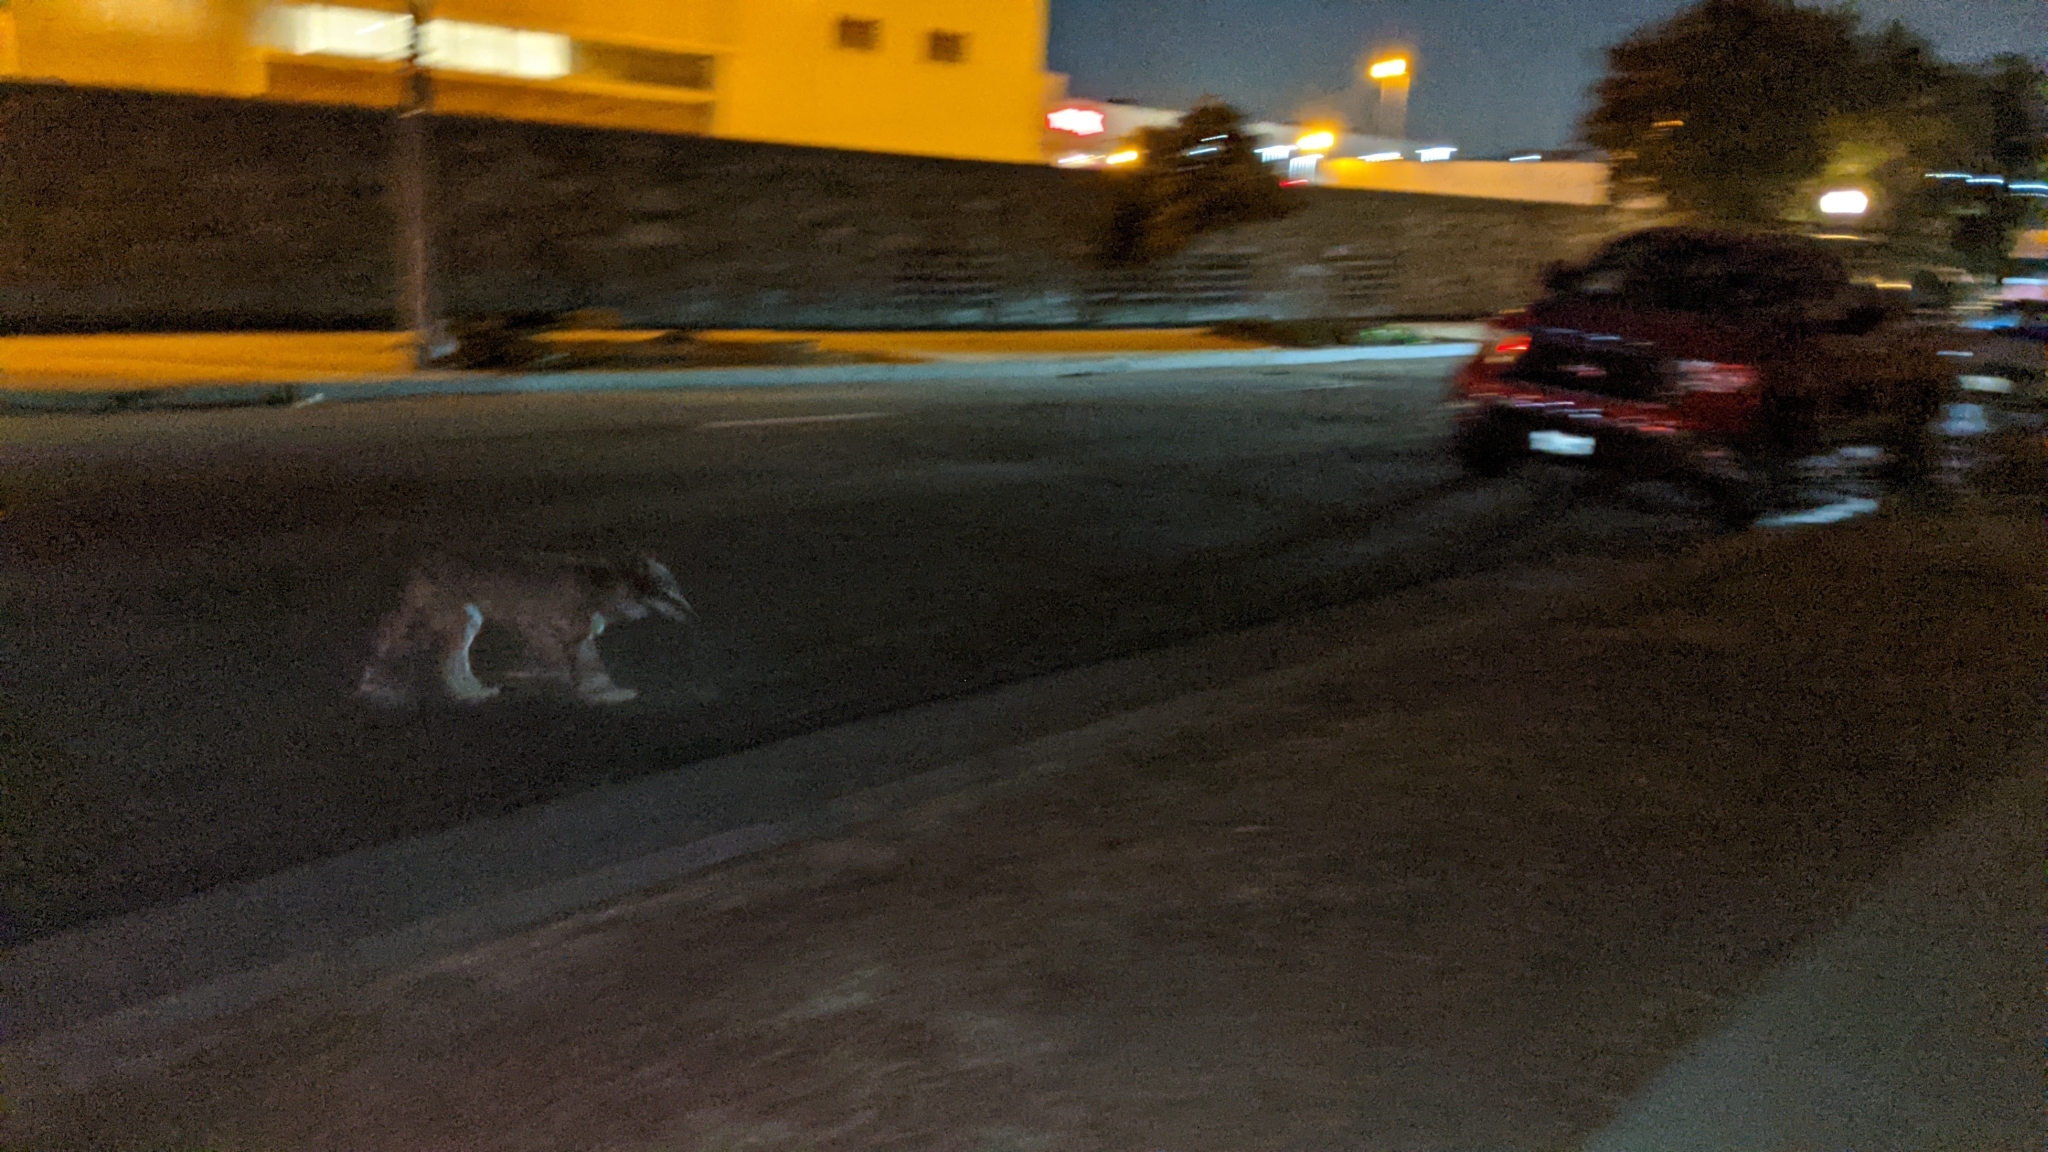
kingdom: Animalia
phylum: Chordata
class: Mammalia
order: Carnivora
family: Canidae
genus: Canis
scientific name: Canis latrans
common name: Coyote
